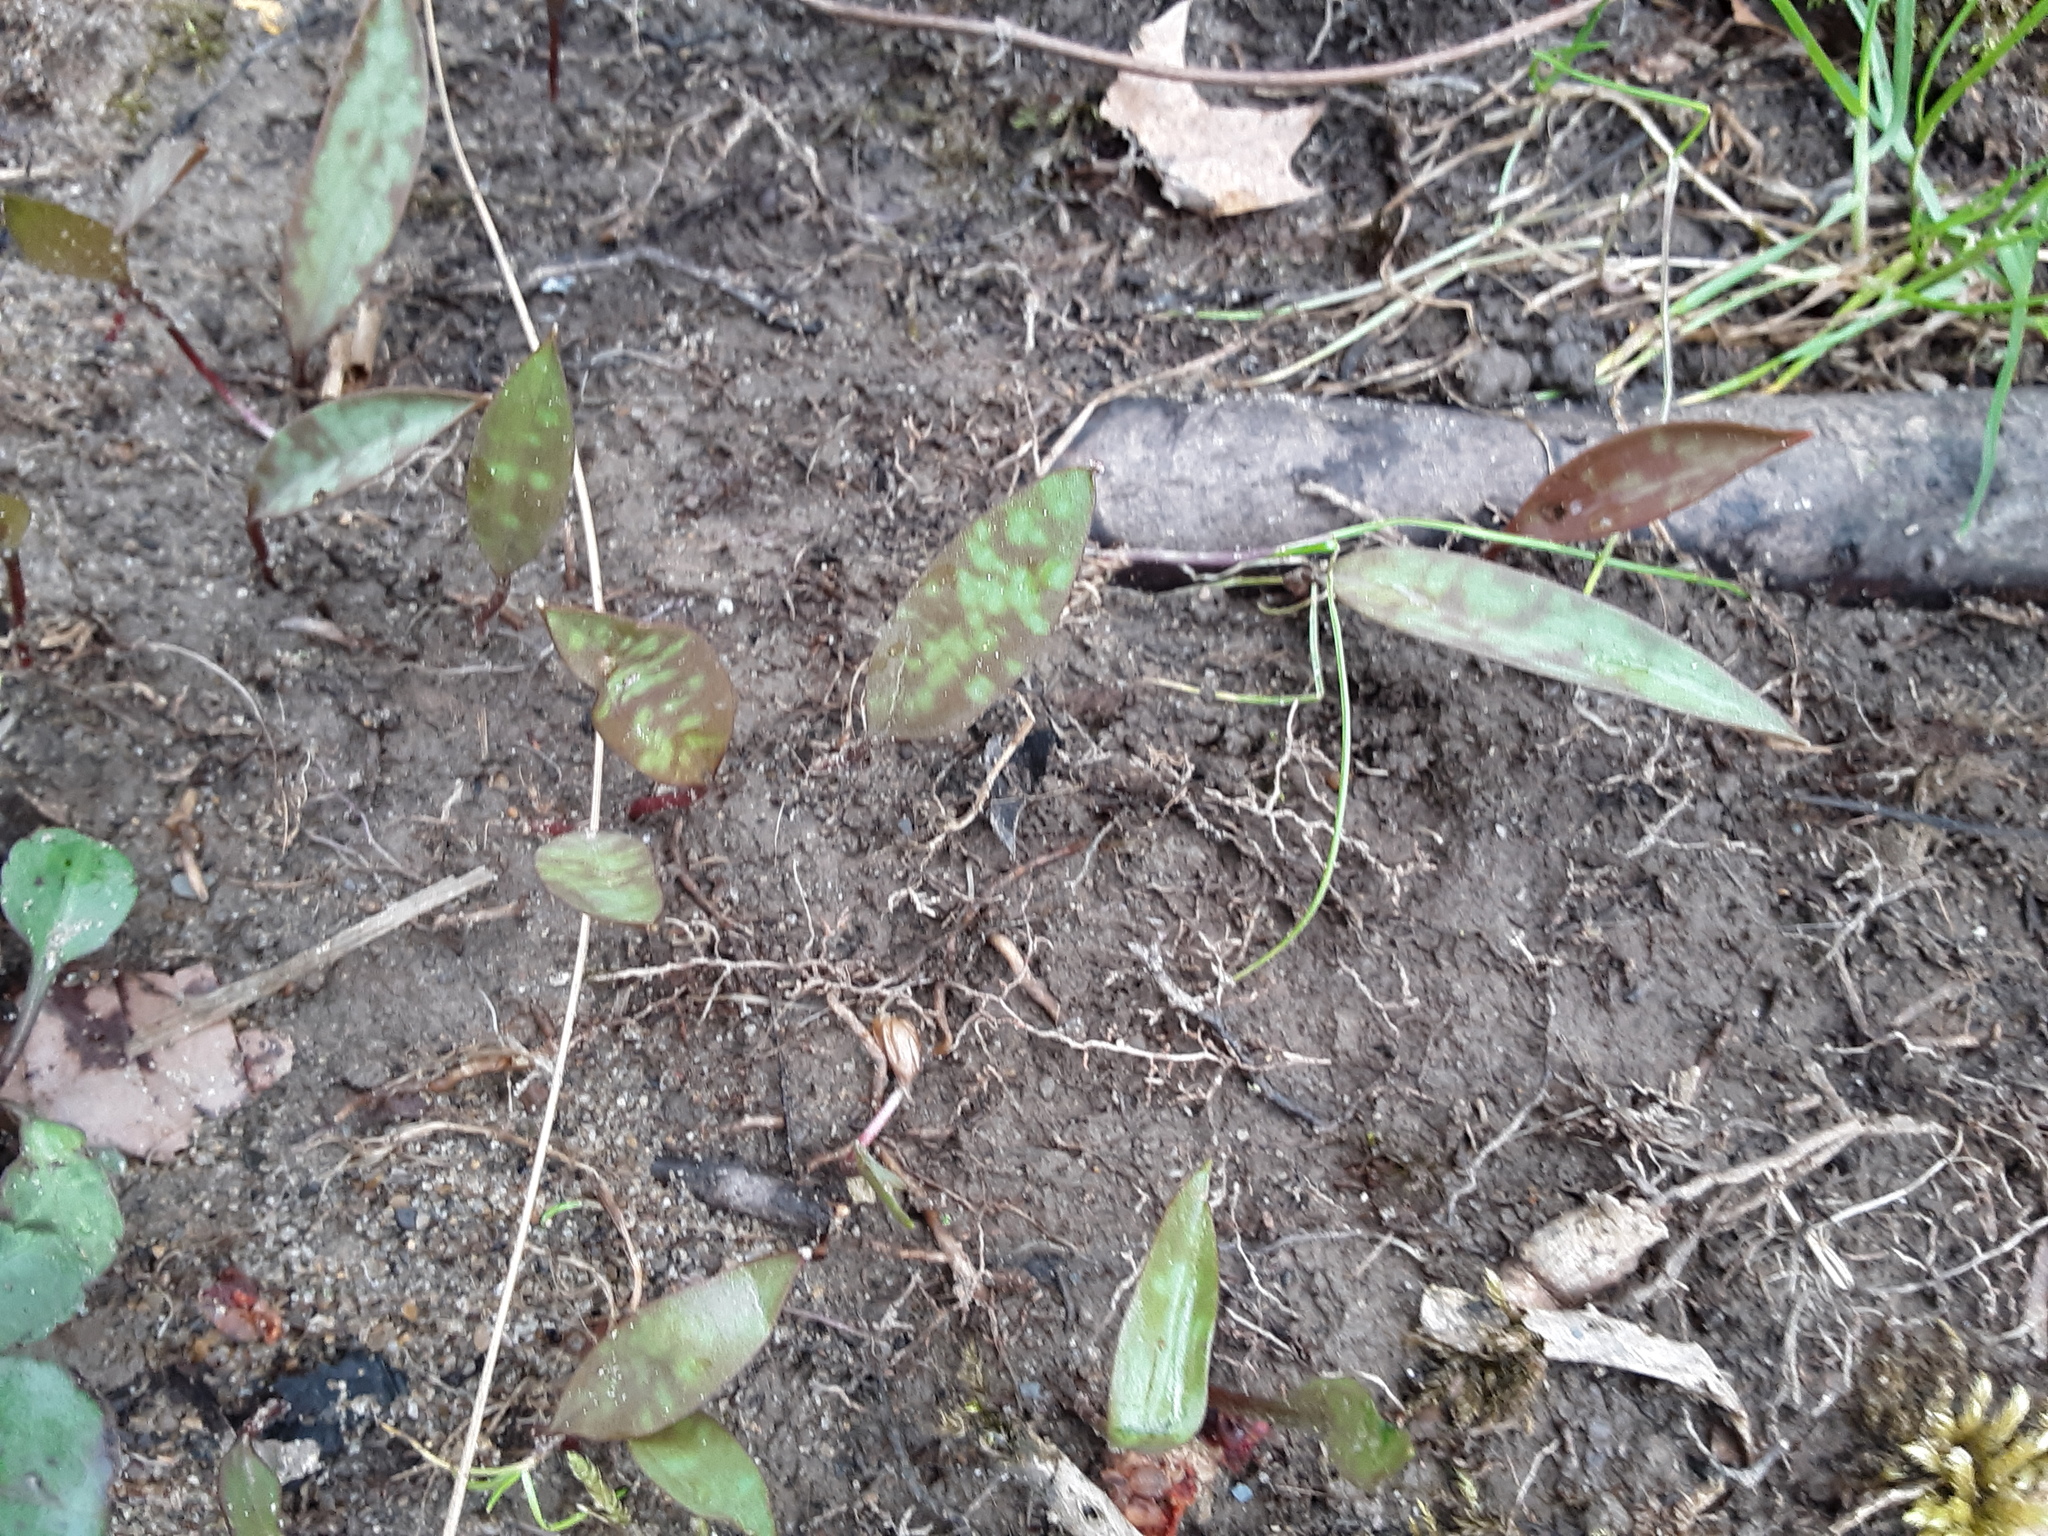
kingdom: Plantae
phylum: Tracheophyta
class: Liliopsida
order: Liliales
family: Liliaceae
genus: Erythronium
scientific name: Erythronium
